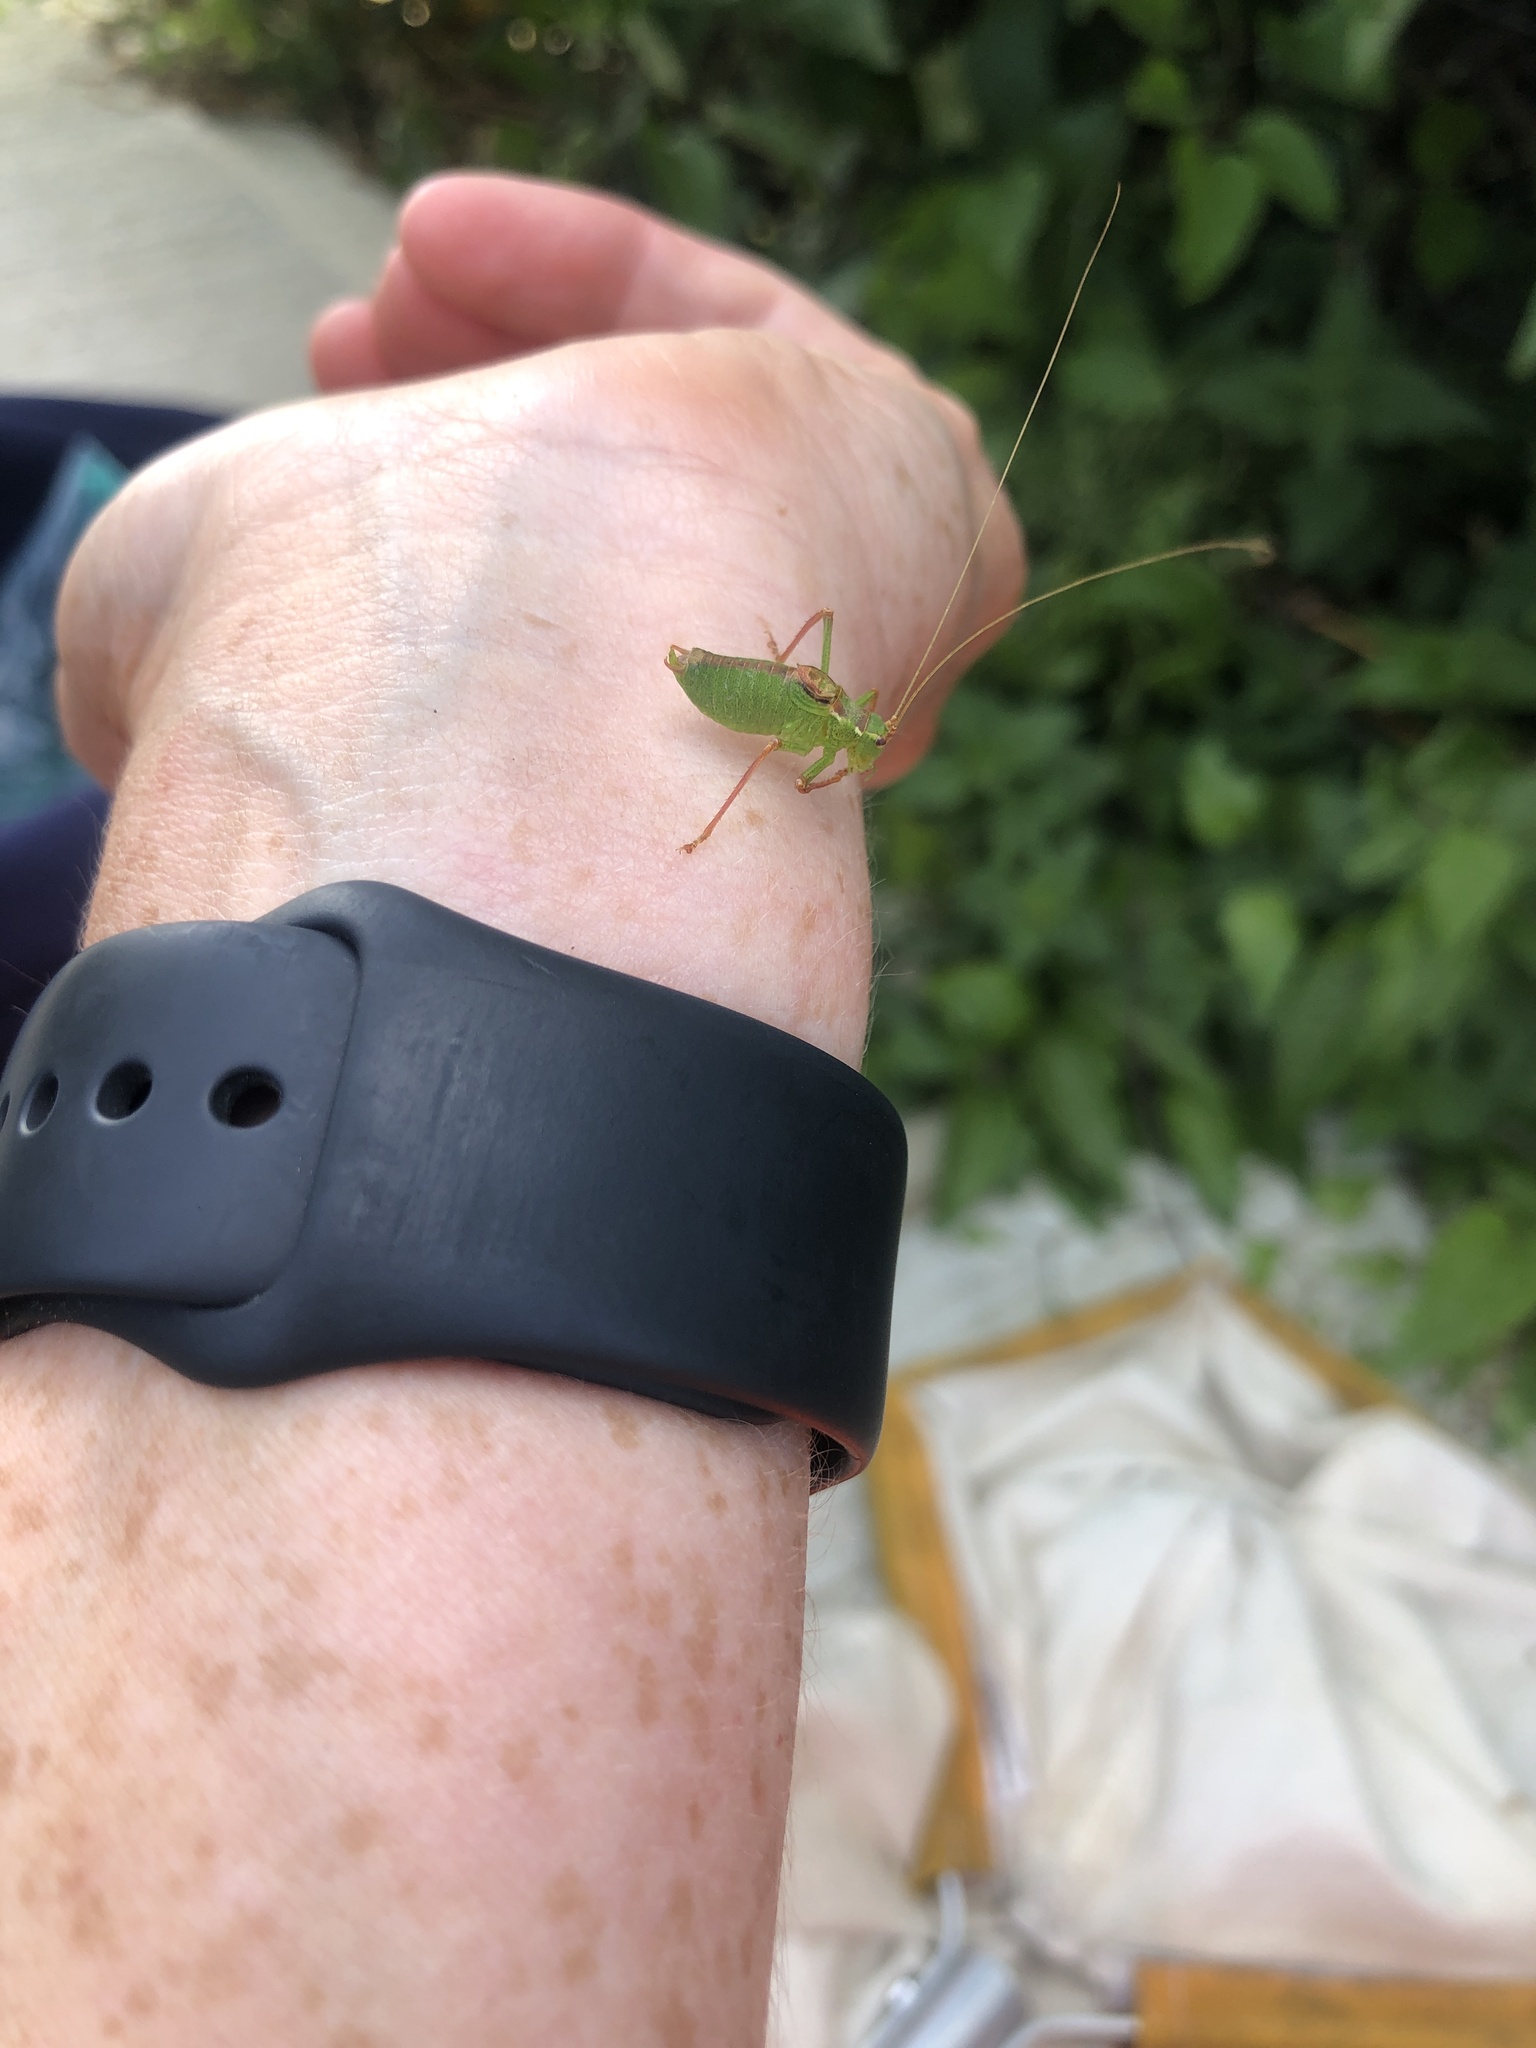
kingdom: Animalia
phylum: Arthropoda
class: Insecta
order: Orthoptera
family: Tettigoniidae
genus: Leptophyes
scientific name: Leptophyes punctatissima
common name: Speckled bush-cricket
